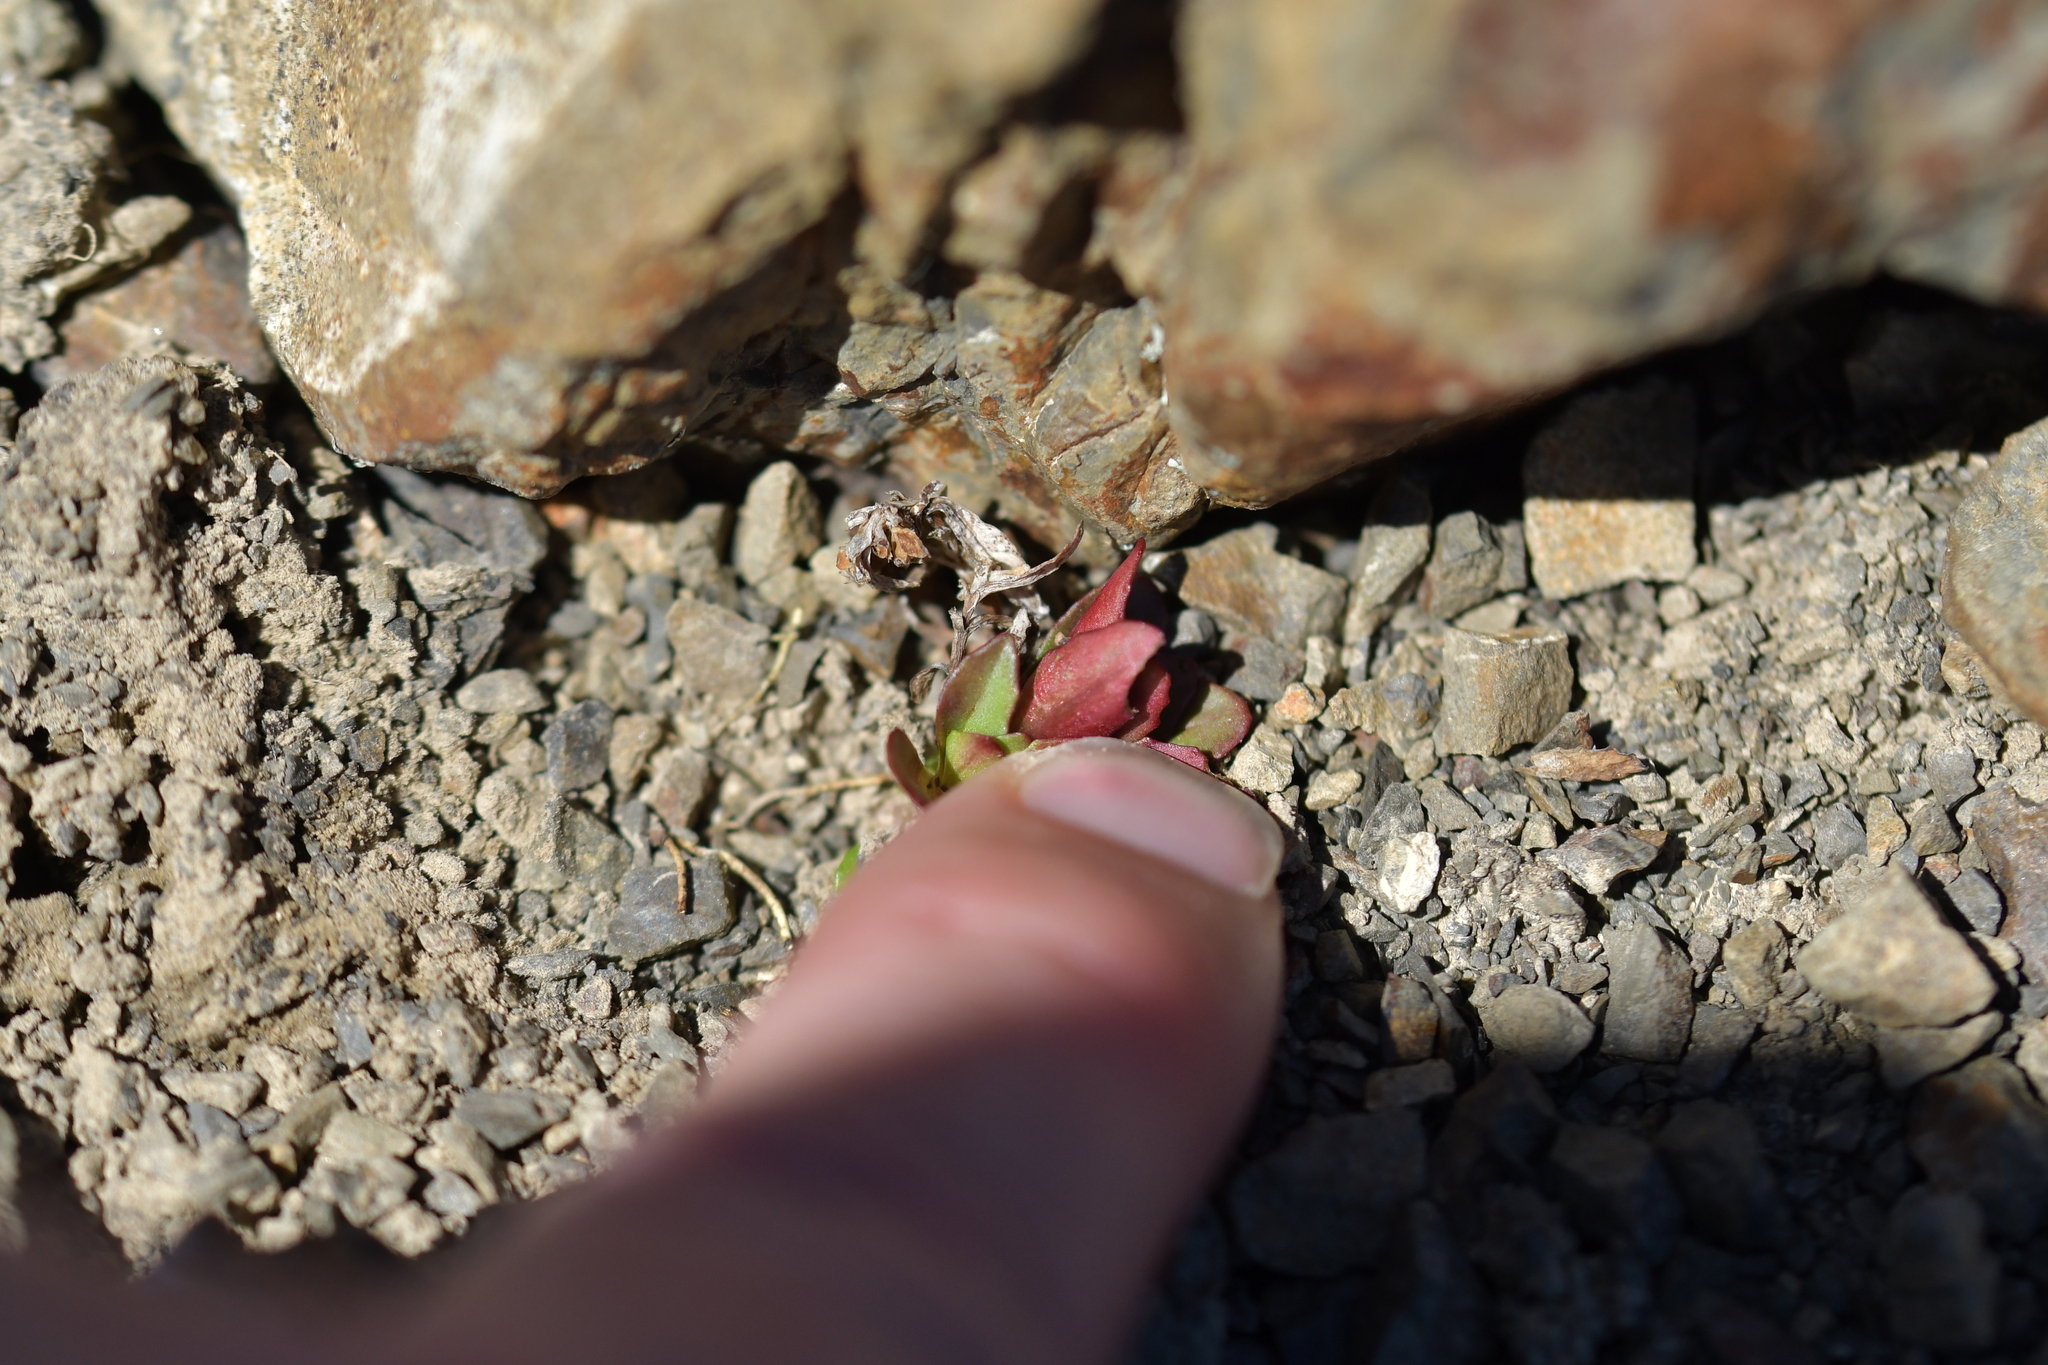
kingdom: Plantae
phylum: Tracheophyta
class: Magnoliopsida
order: Myrtales
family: Onagraceae
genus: Epilobium
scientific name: Epilobium pycnostachyum
